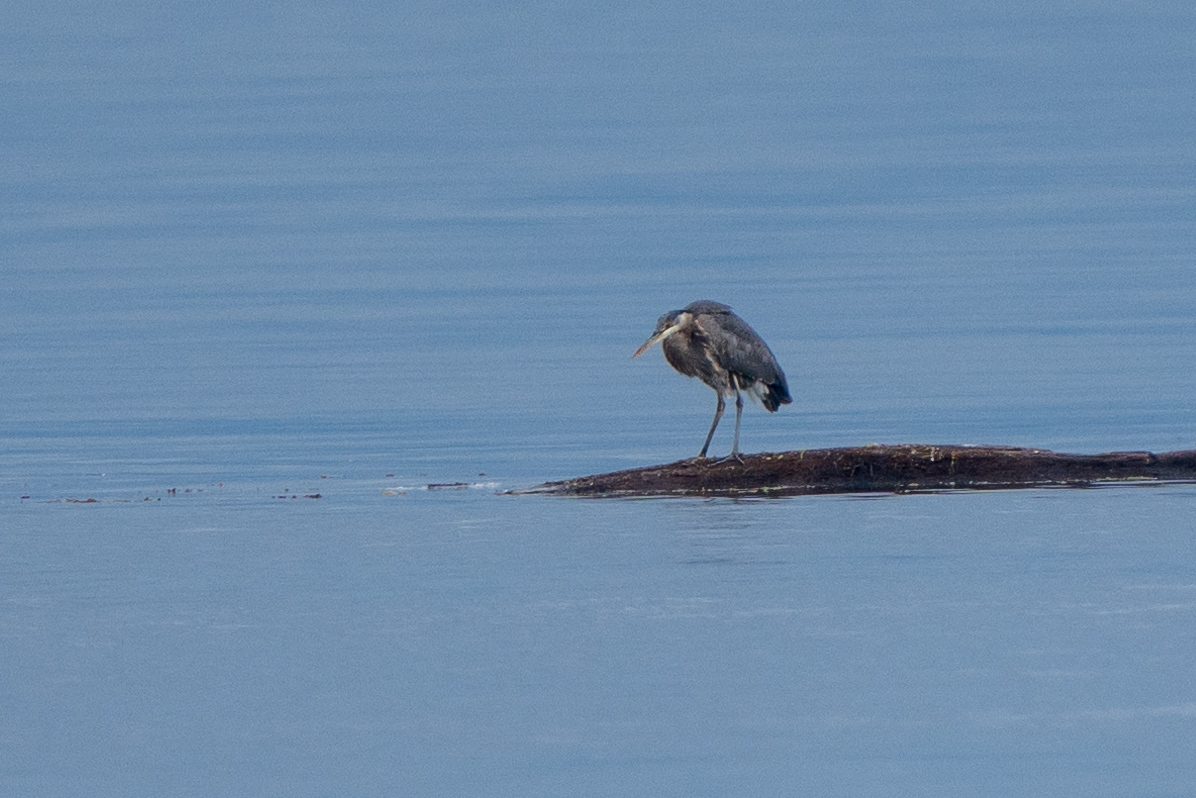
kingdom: Animalia
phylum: Chordata
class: Aves
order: Pelecaniformes
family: Ardeidae
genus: Ardea
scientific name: Ardea herodias
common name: Great blue heron
